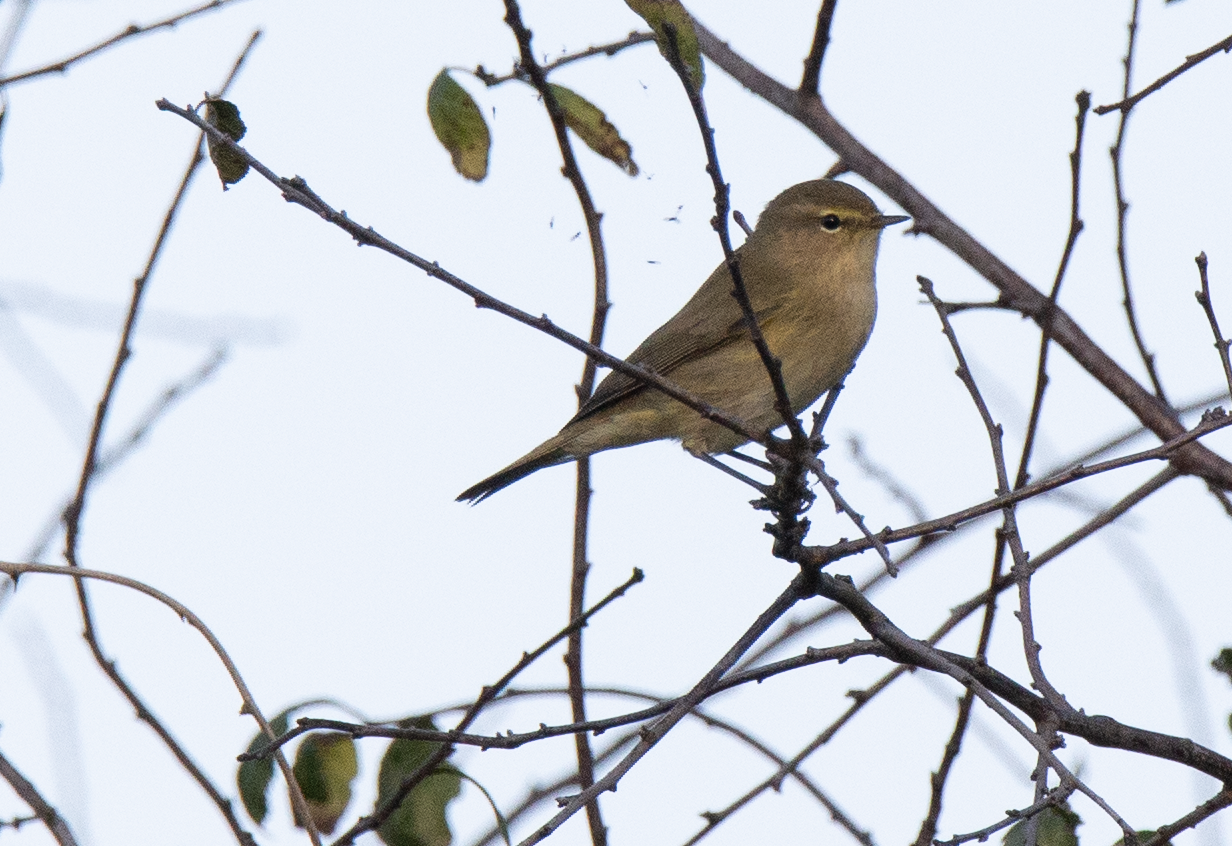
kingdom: Animalia
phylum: Chordata
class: Aves
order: Passeriformes
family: Phylloscopidae
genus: Phylloscopus
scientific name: Phylloscopus collybita
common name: Common chiffchaff
